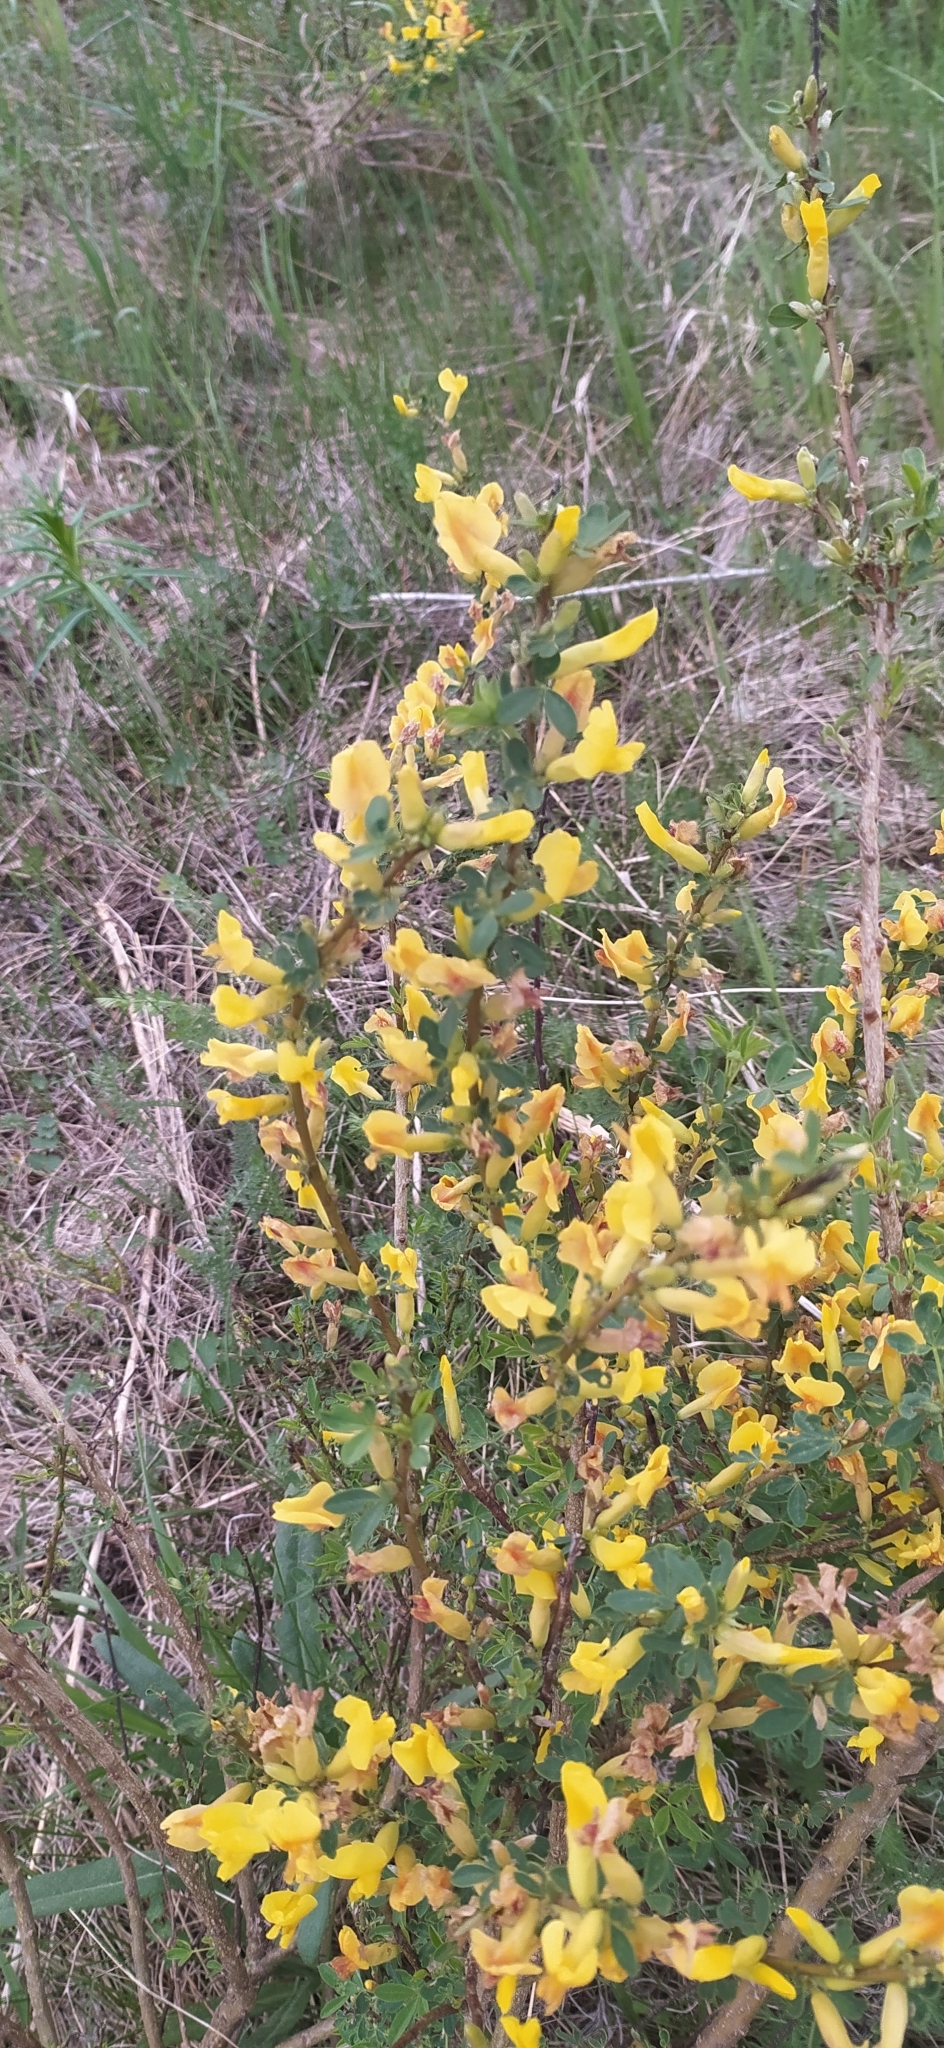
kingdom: Plantae
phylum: Tracheophyta
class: Magnoliopsida
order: Fabales
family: Fabaceae
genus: Chamaecytisus
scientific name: Chamaecytisus ruthenicus
